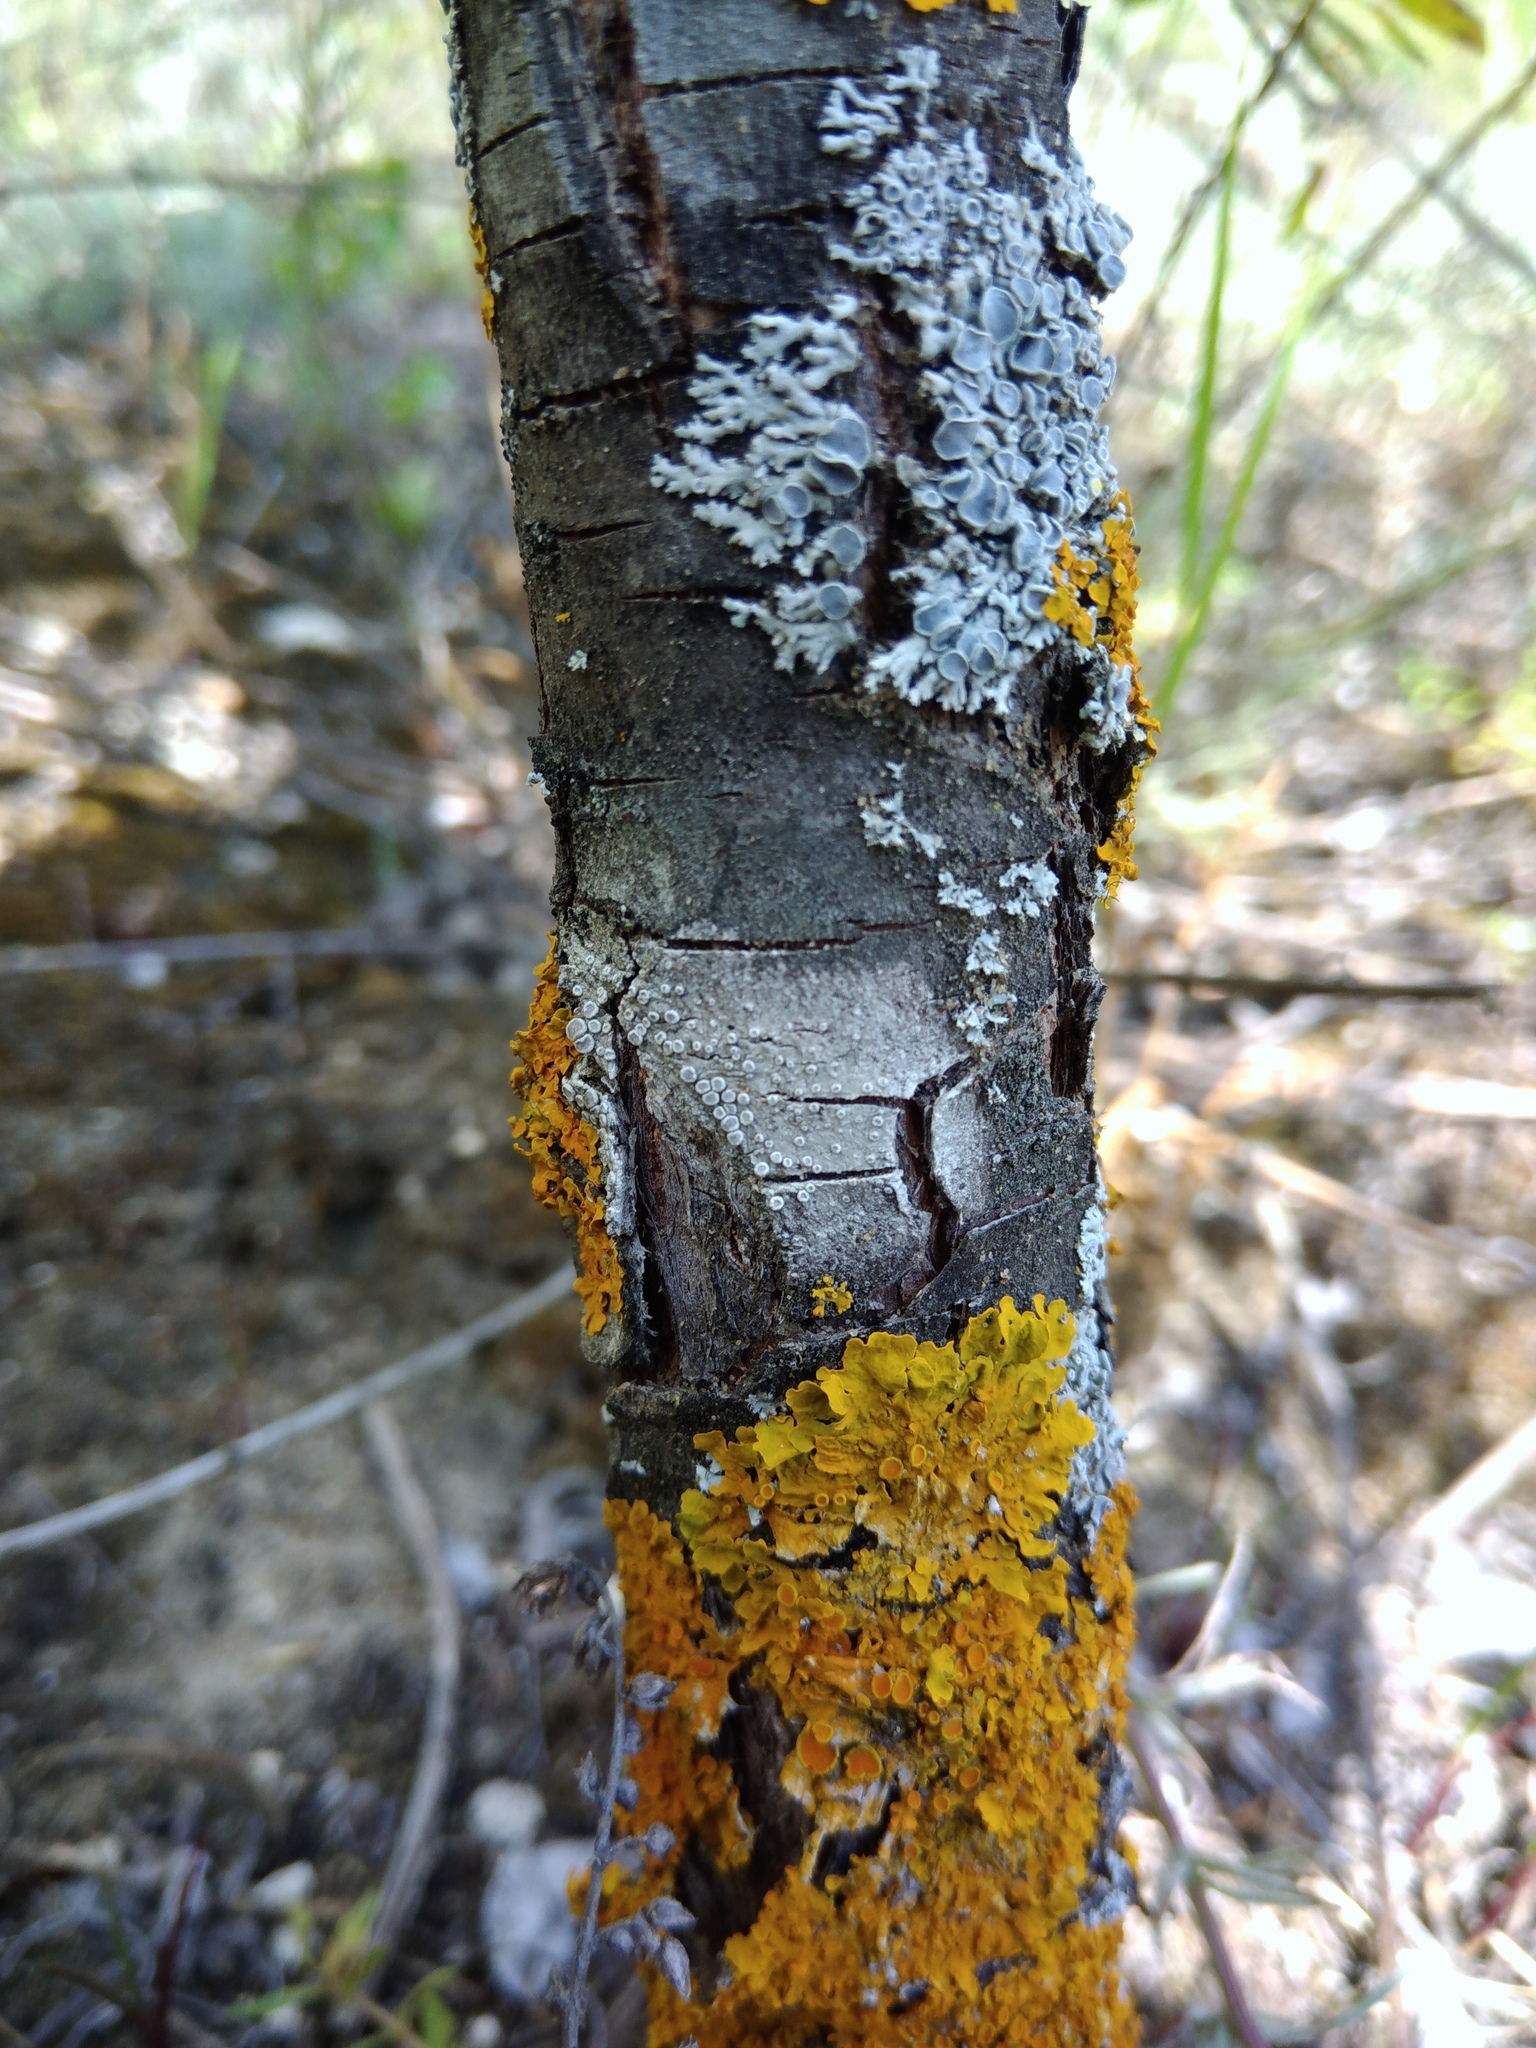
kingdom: Fungi
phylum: Ascomycota
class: Lecanoromycetes
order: Lecanorales
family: Lecanoraceae
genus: Glaucomaria
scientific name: Glaucomaria carpinea
